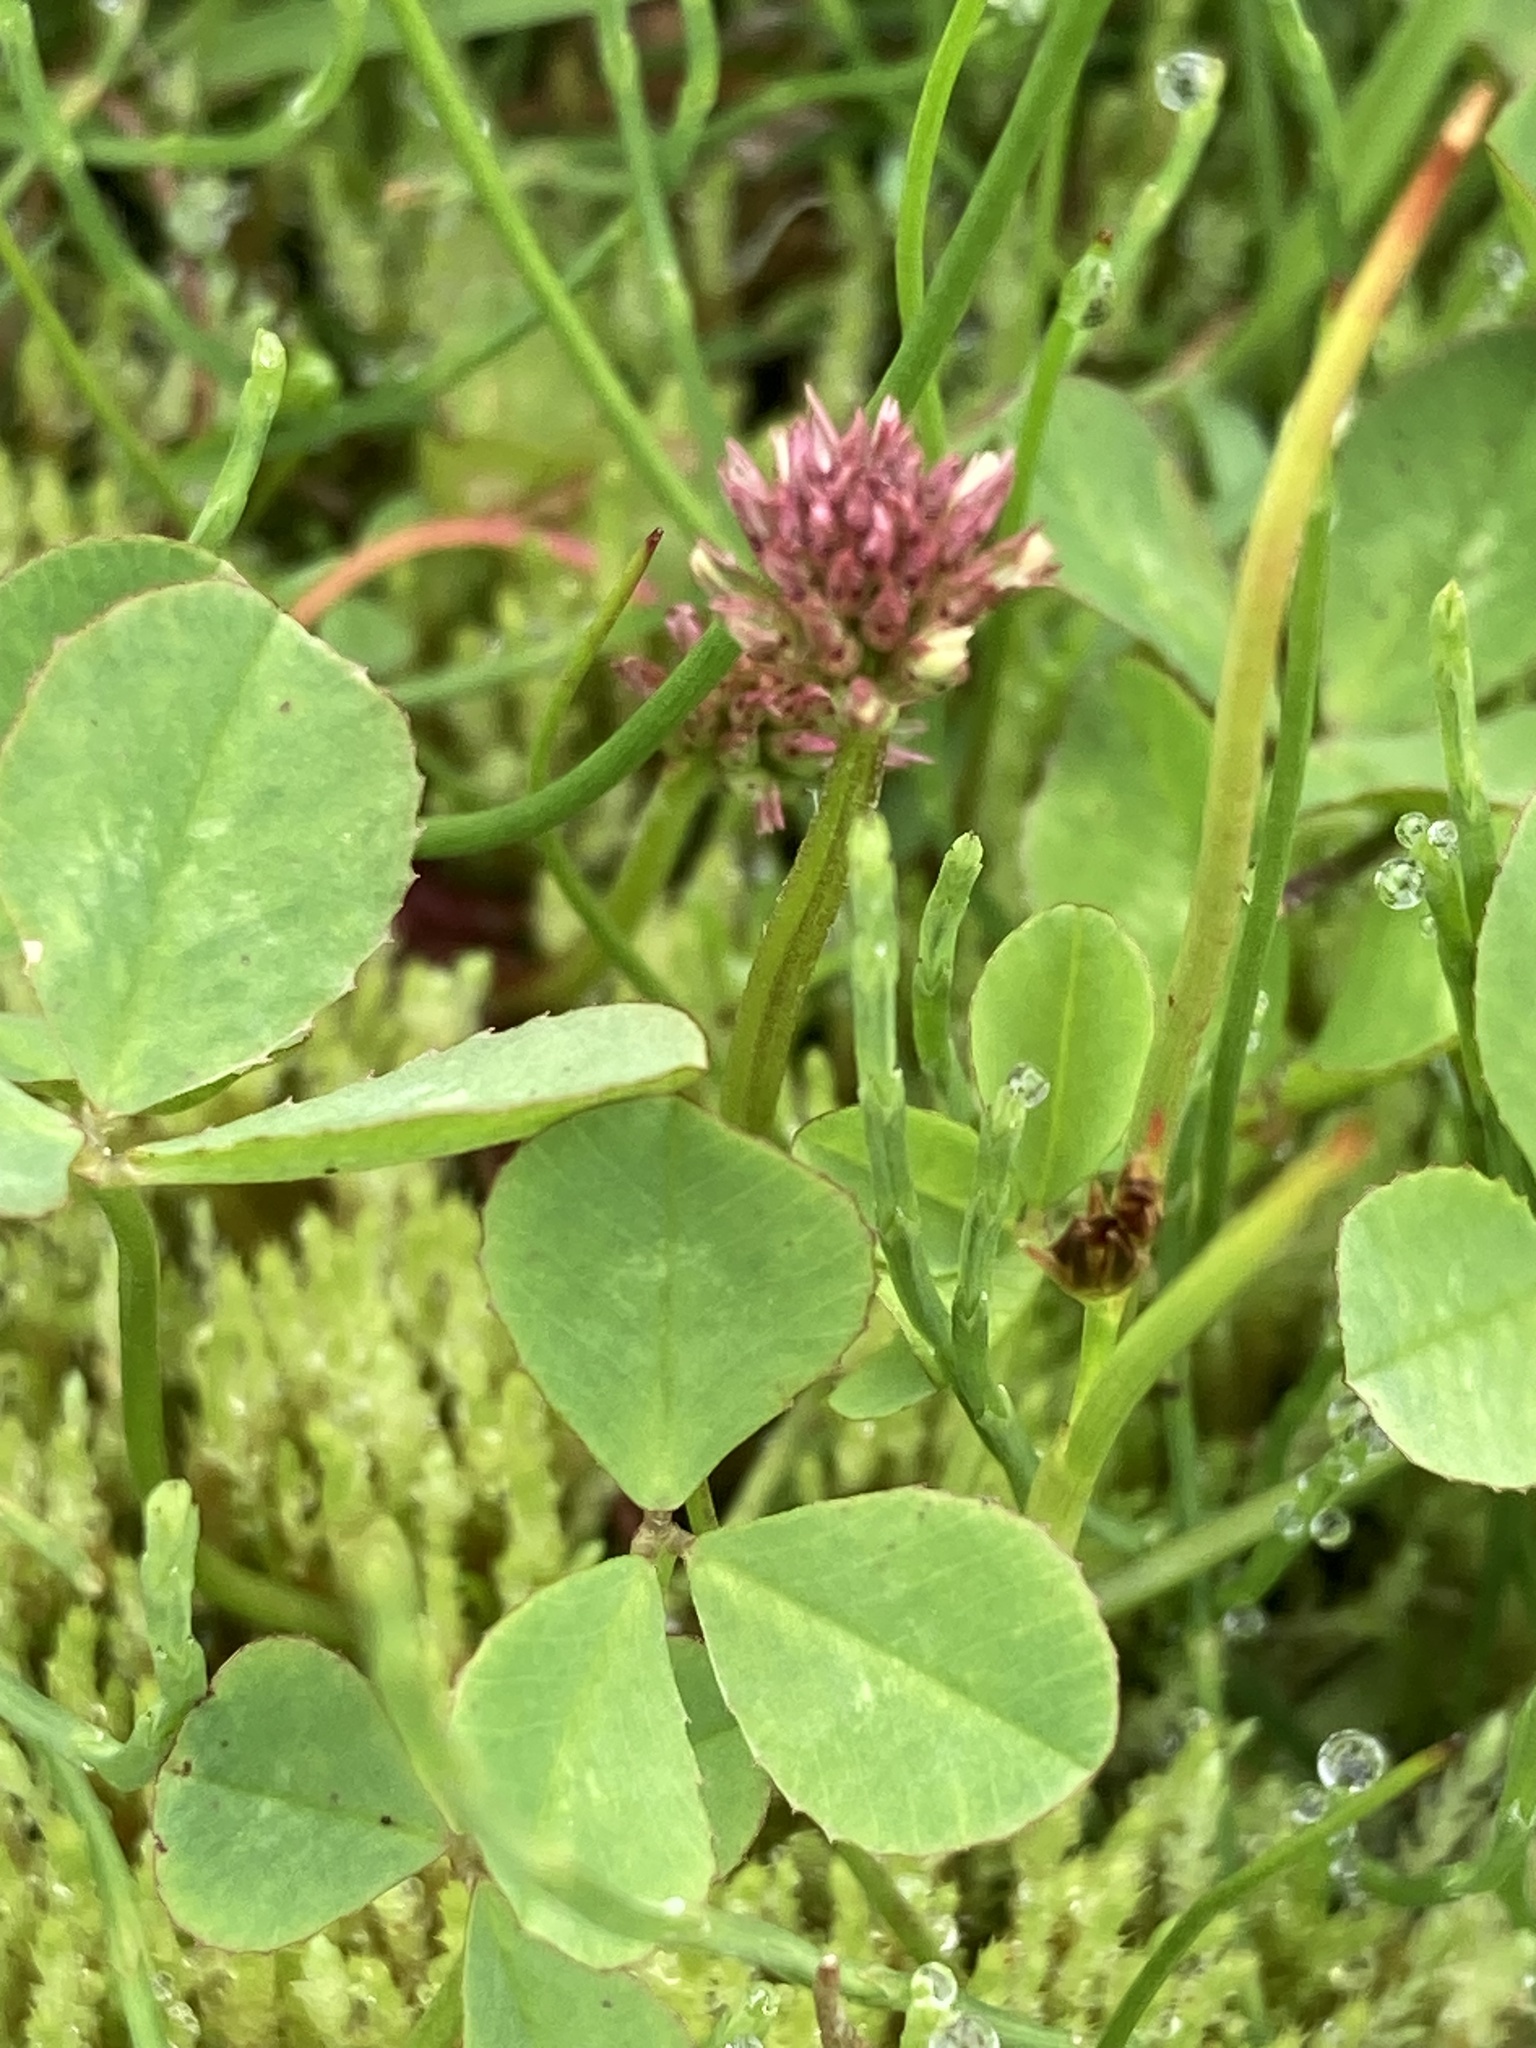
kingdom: Plantae
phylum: Tracheophyta
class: Magnoliopsida
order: Fabales
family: Fabaceae
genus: Trifolium
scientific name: Trifolium repens
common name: White clover
